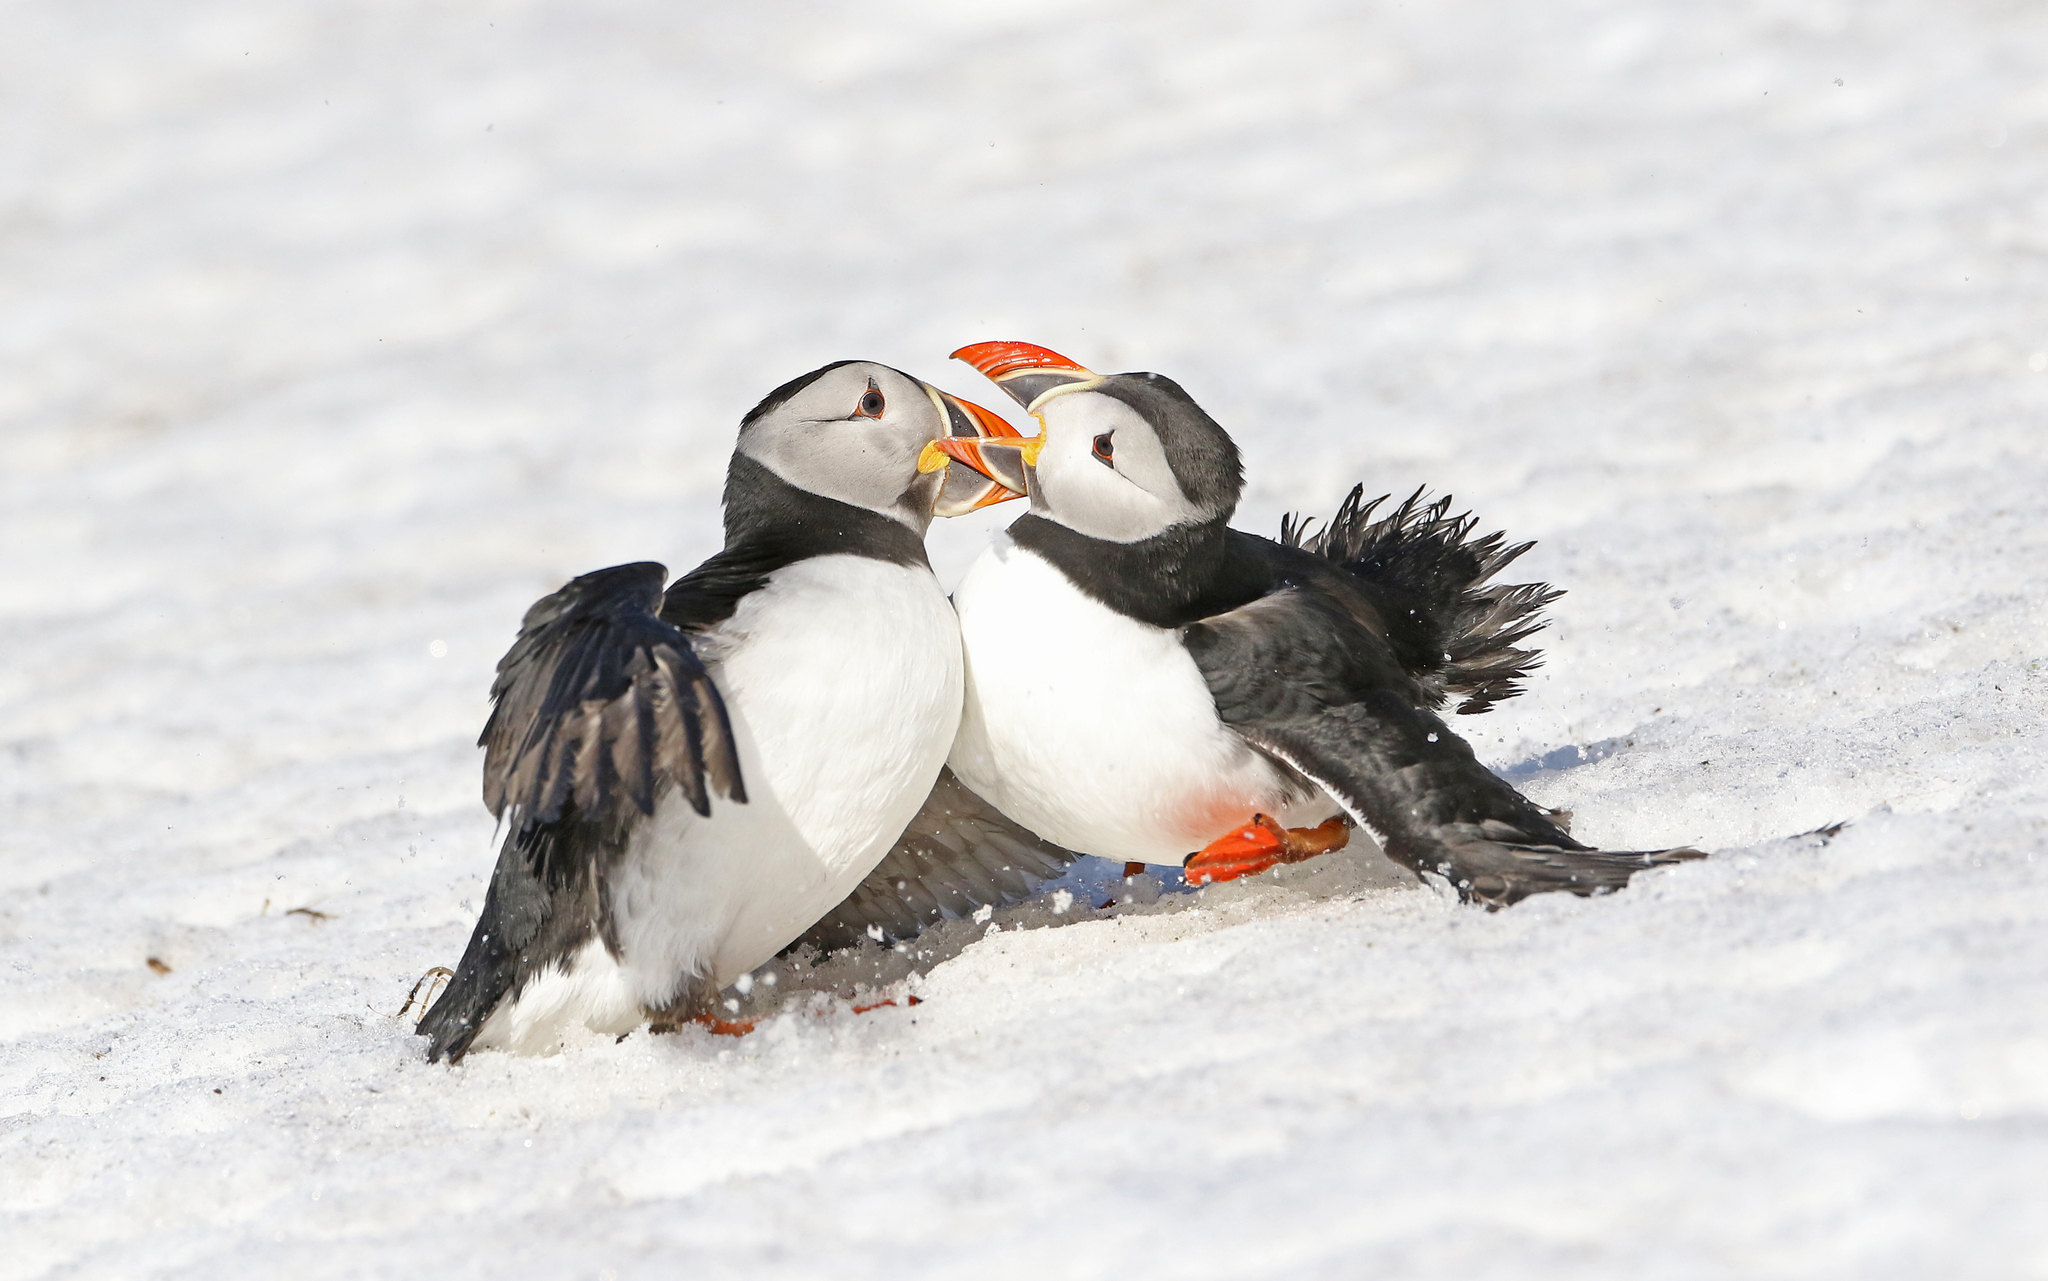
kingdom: Animalia
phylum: Chordata
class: Aves
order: Charadriiformes
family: Alcidae
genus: Fratercula
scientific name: Fratercula arctica
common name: Atlantic puffin
